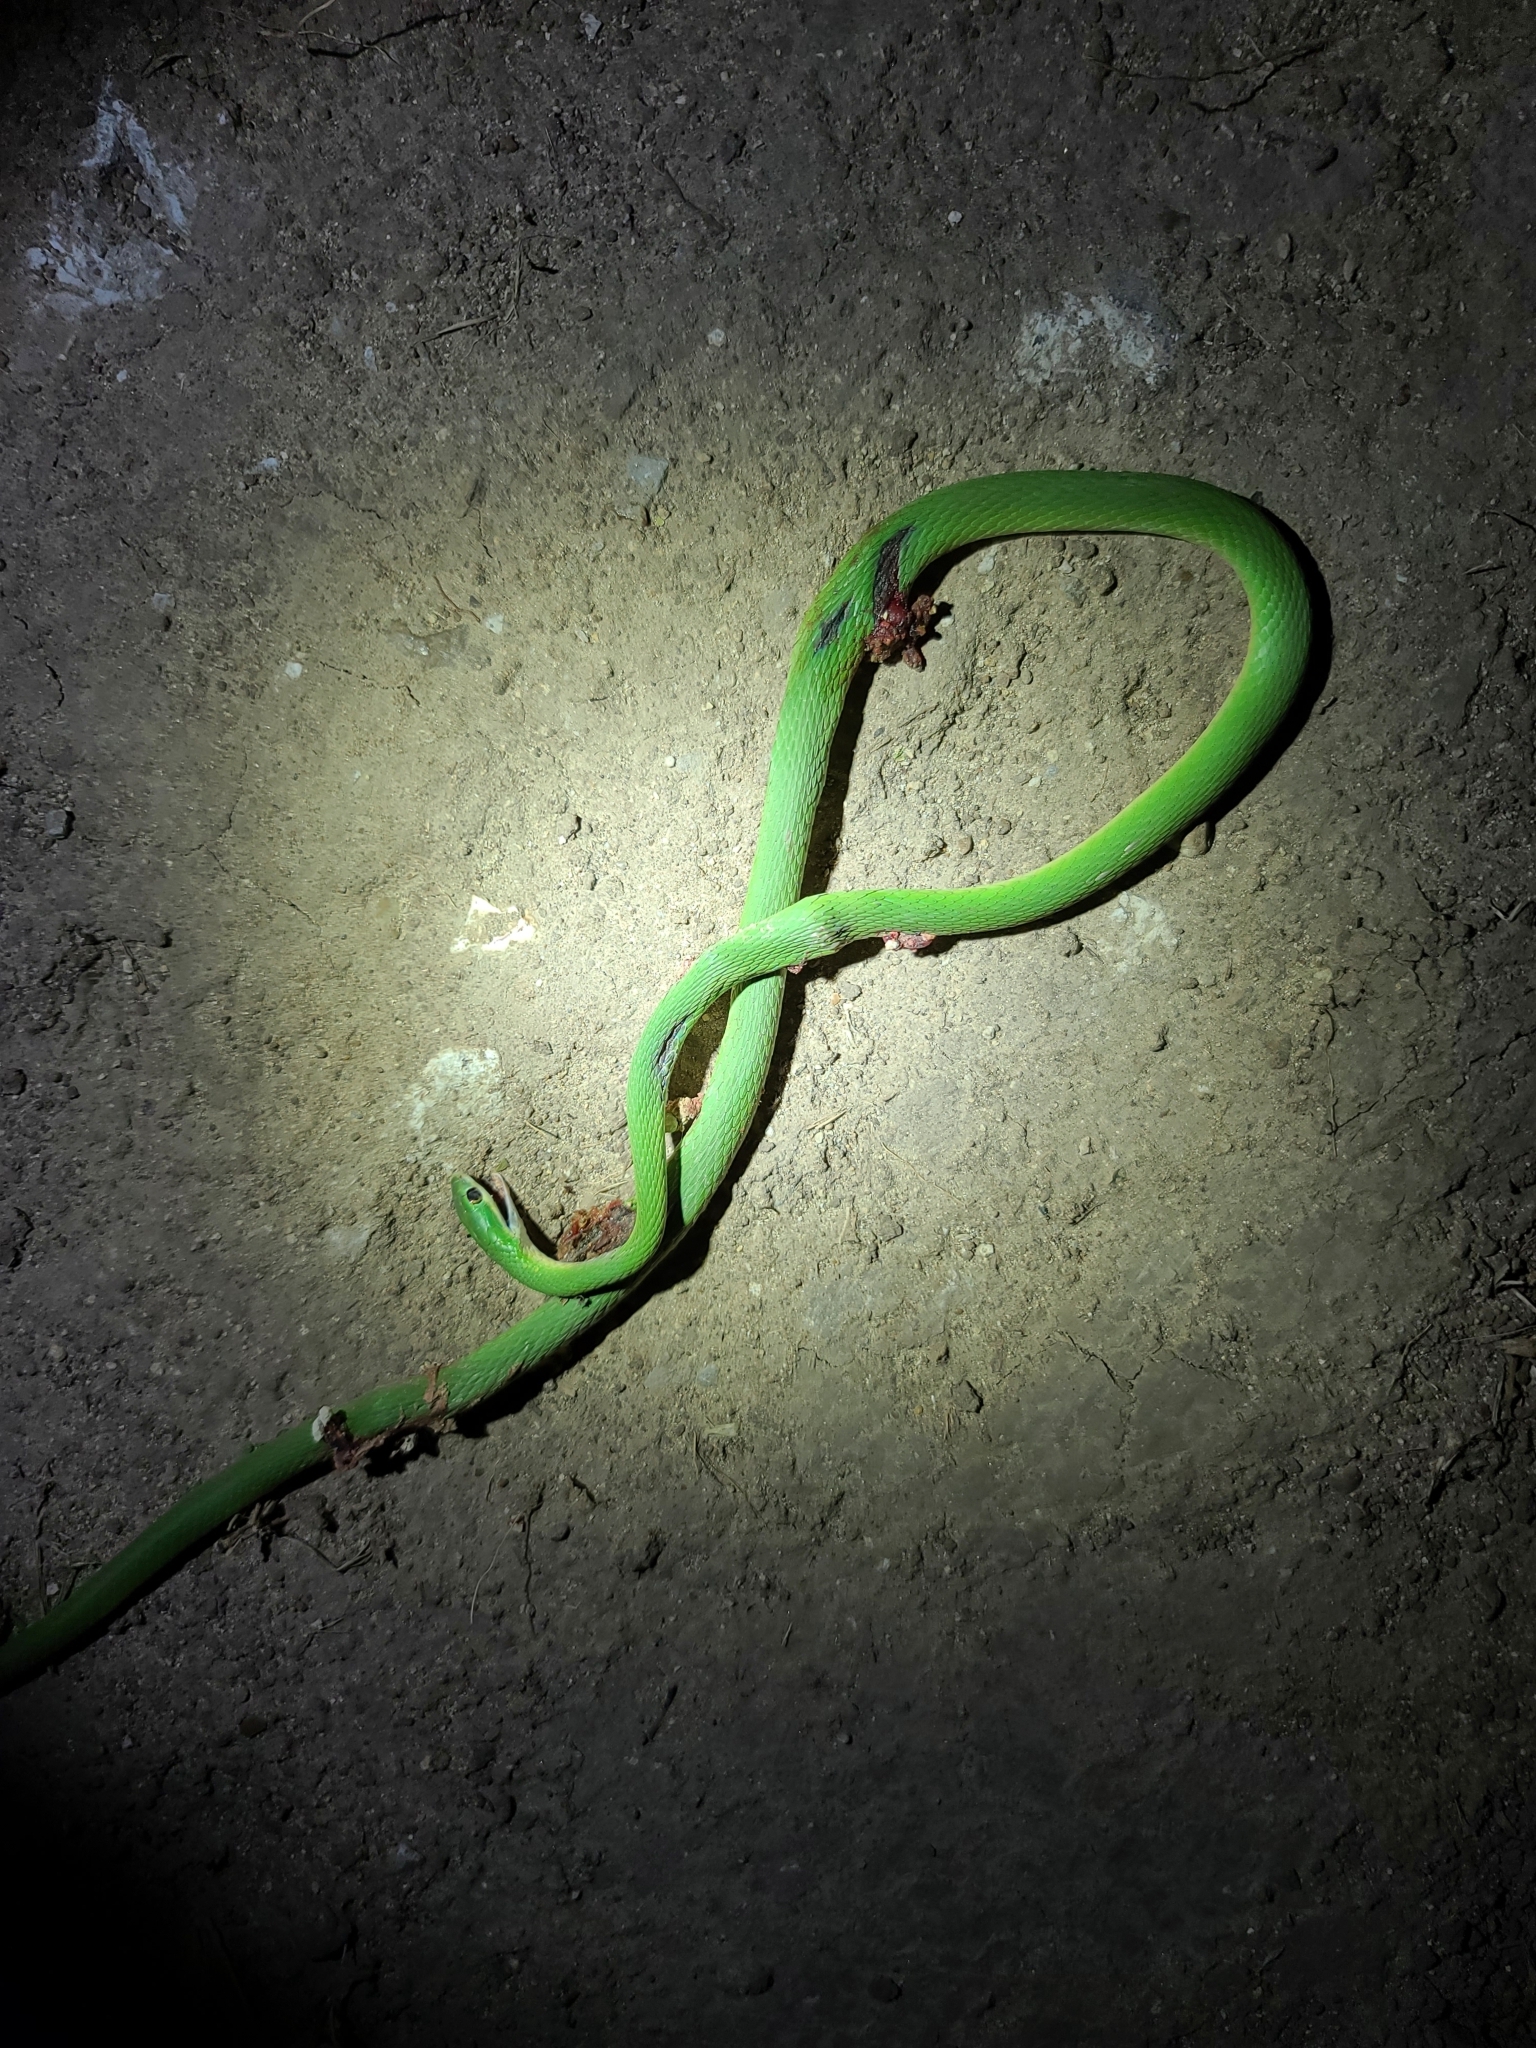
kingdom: Animalia
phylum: Chordata
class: Squamata
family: Colubridae
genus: Opheodrys
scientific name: Opheodrys aestivus
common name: Rough greensnake
